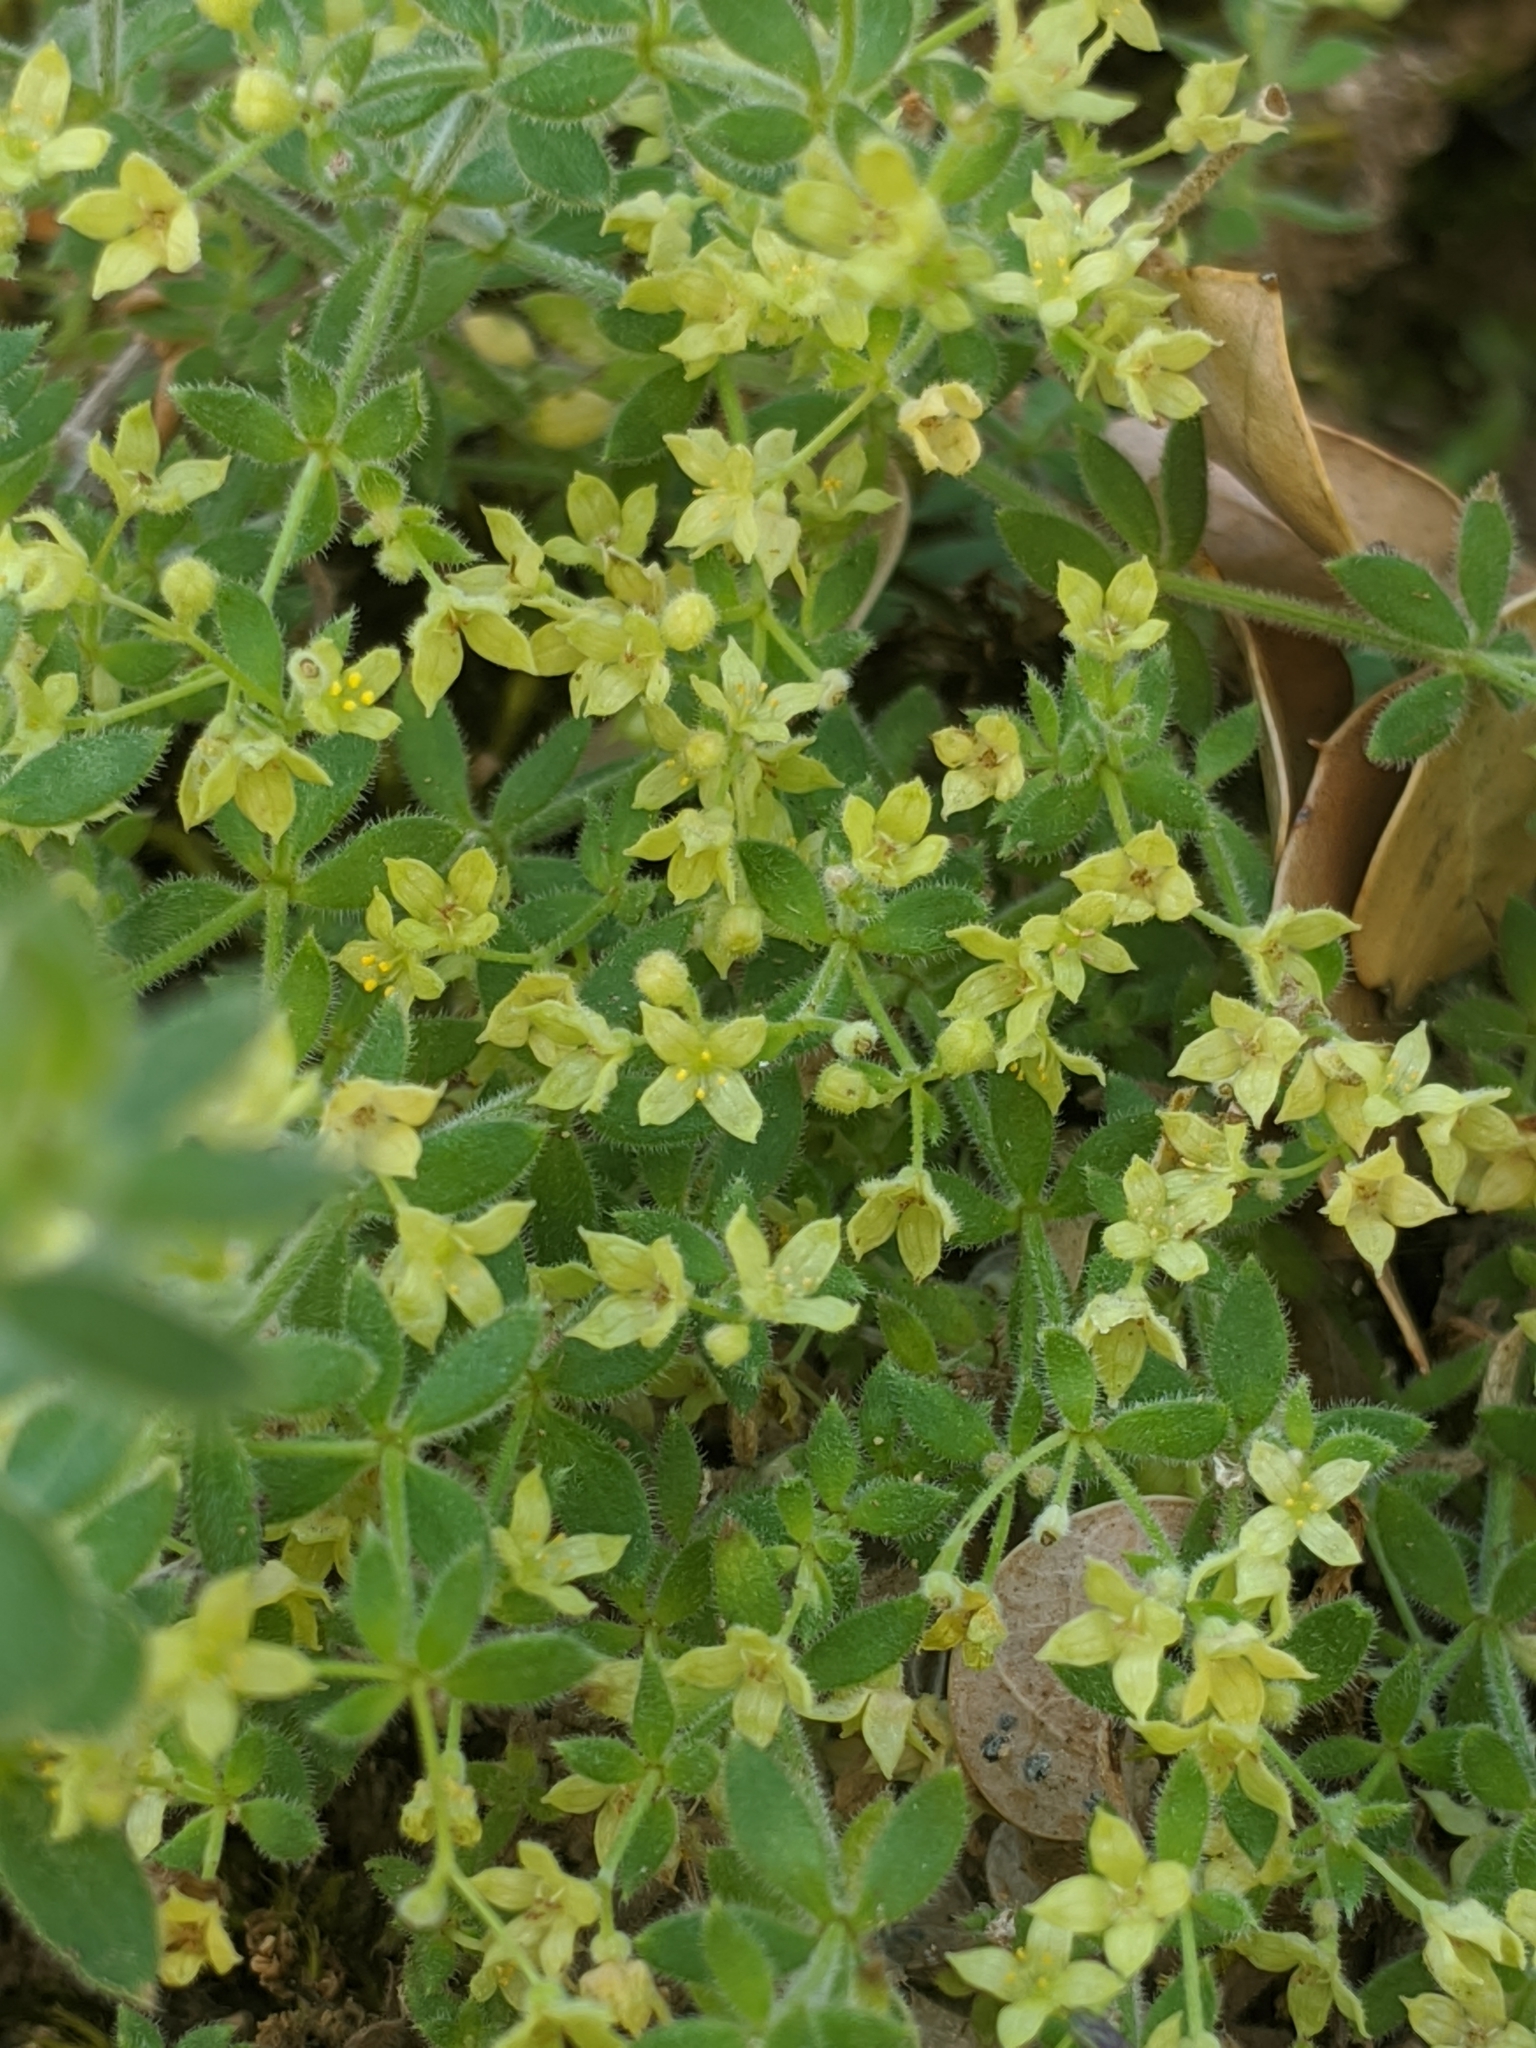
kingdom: Plantae
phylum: Tracheophyta
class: Magnoliopsida
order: Gentianales
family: Rubiaceae
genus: Galium
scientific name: Galium californicum
